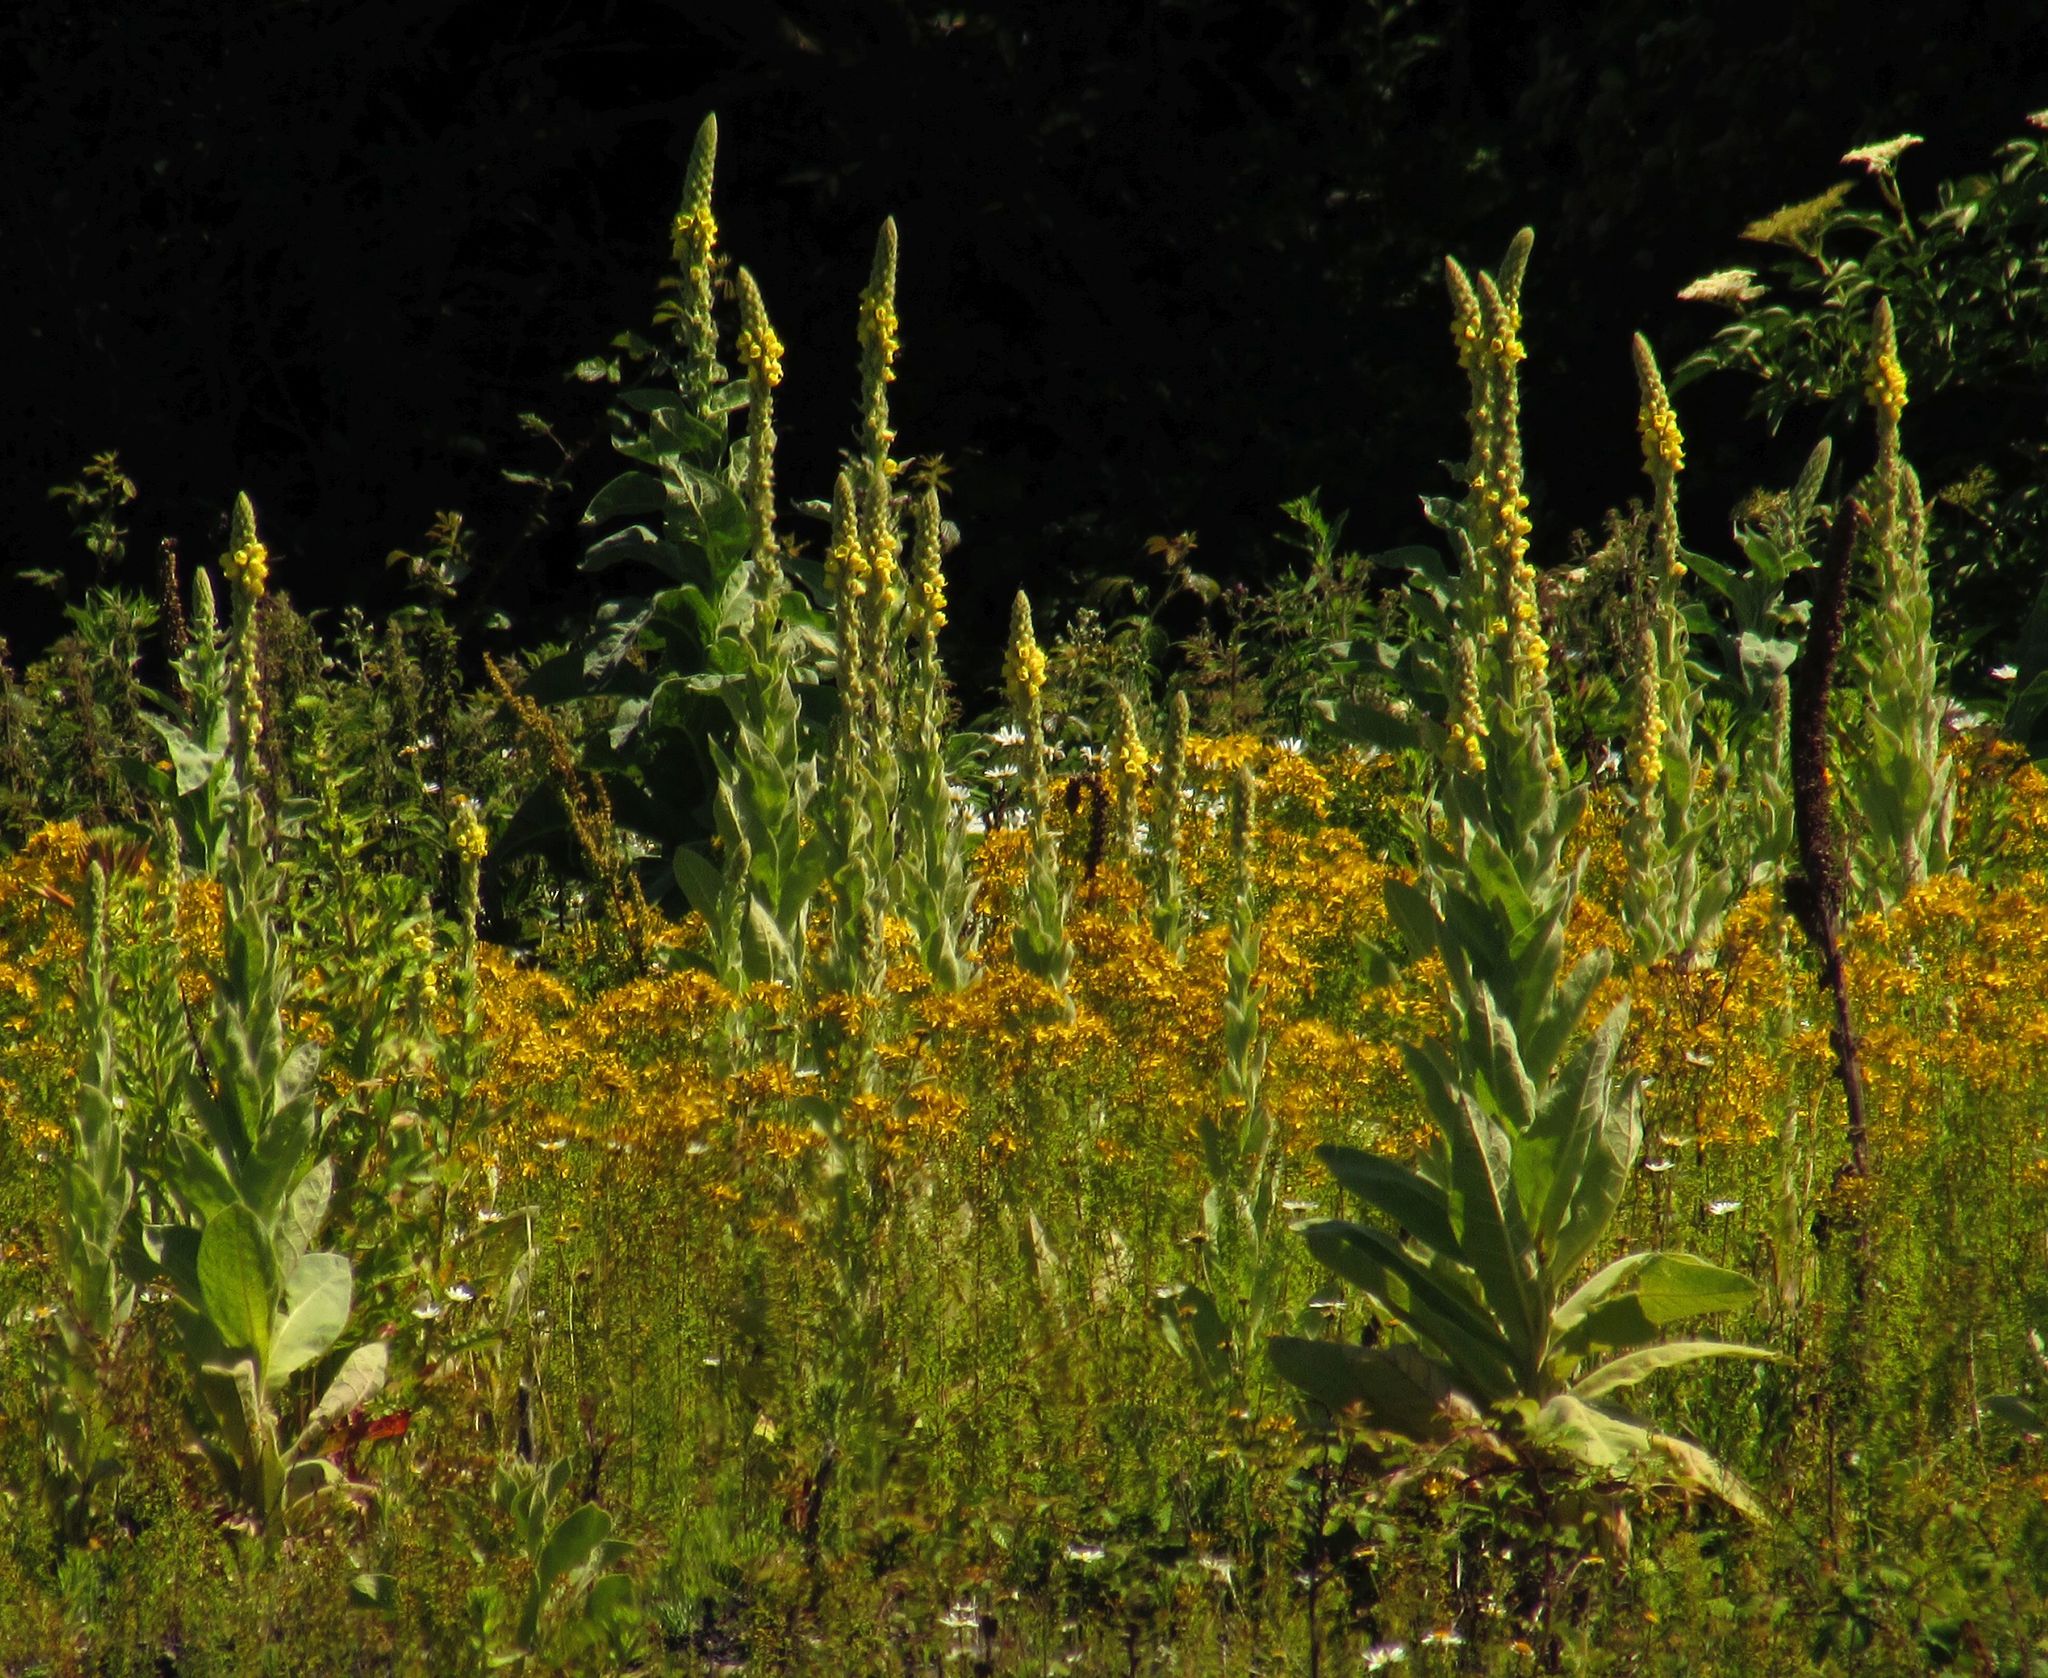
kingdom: Plantae
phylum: Tracheophyta
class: Magnoliopsida
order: Lamiales
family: Scrophulariaceae
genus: Verbascum
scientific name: Verbascum thapsus
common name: Common mullein
